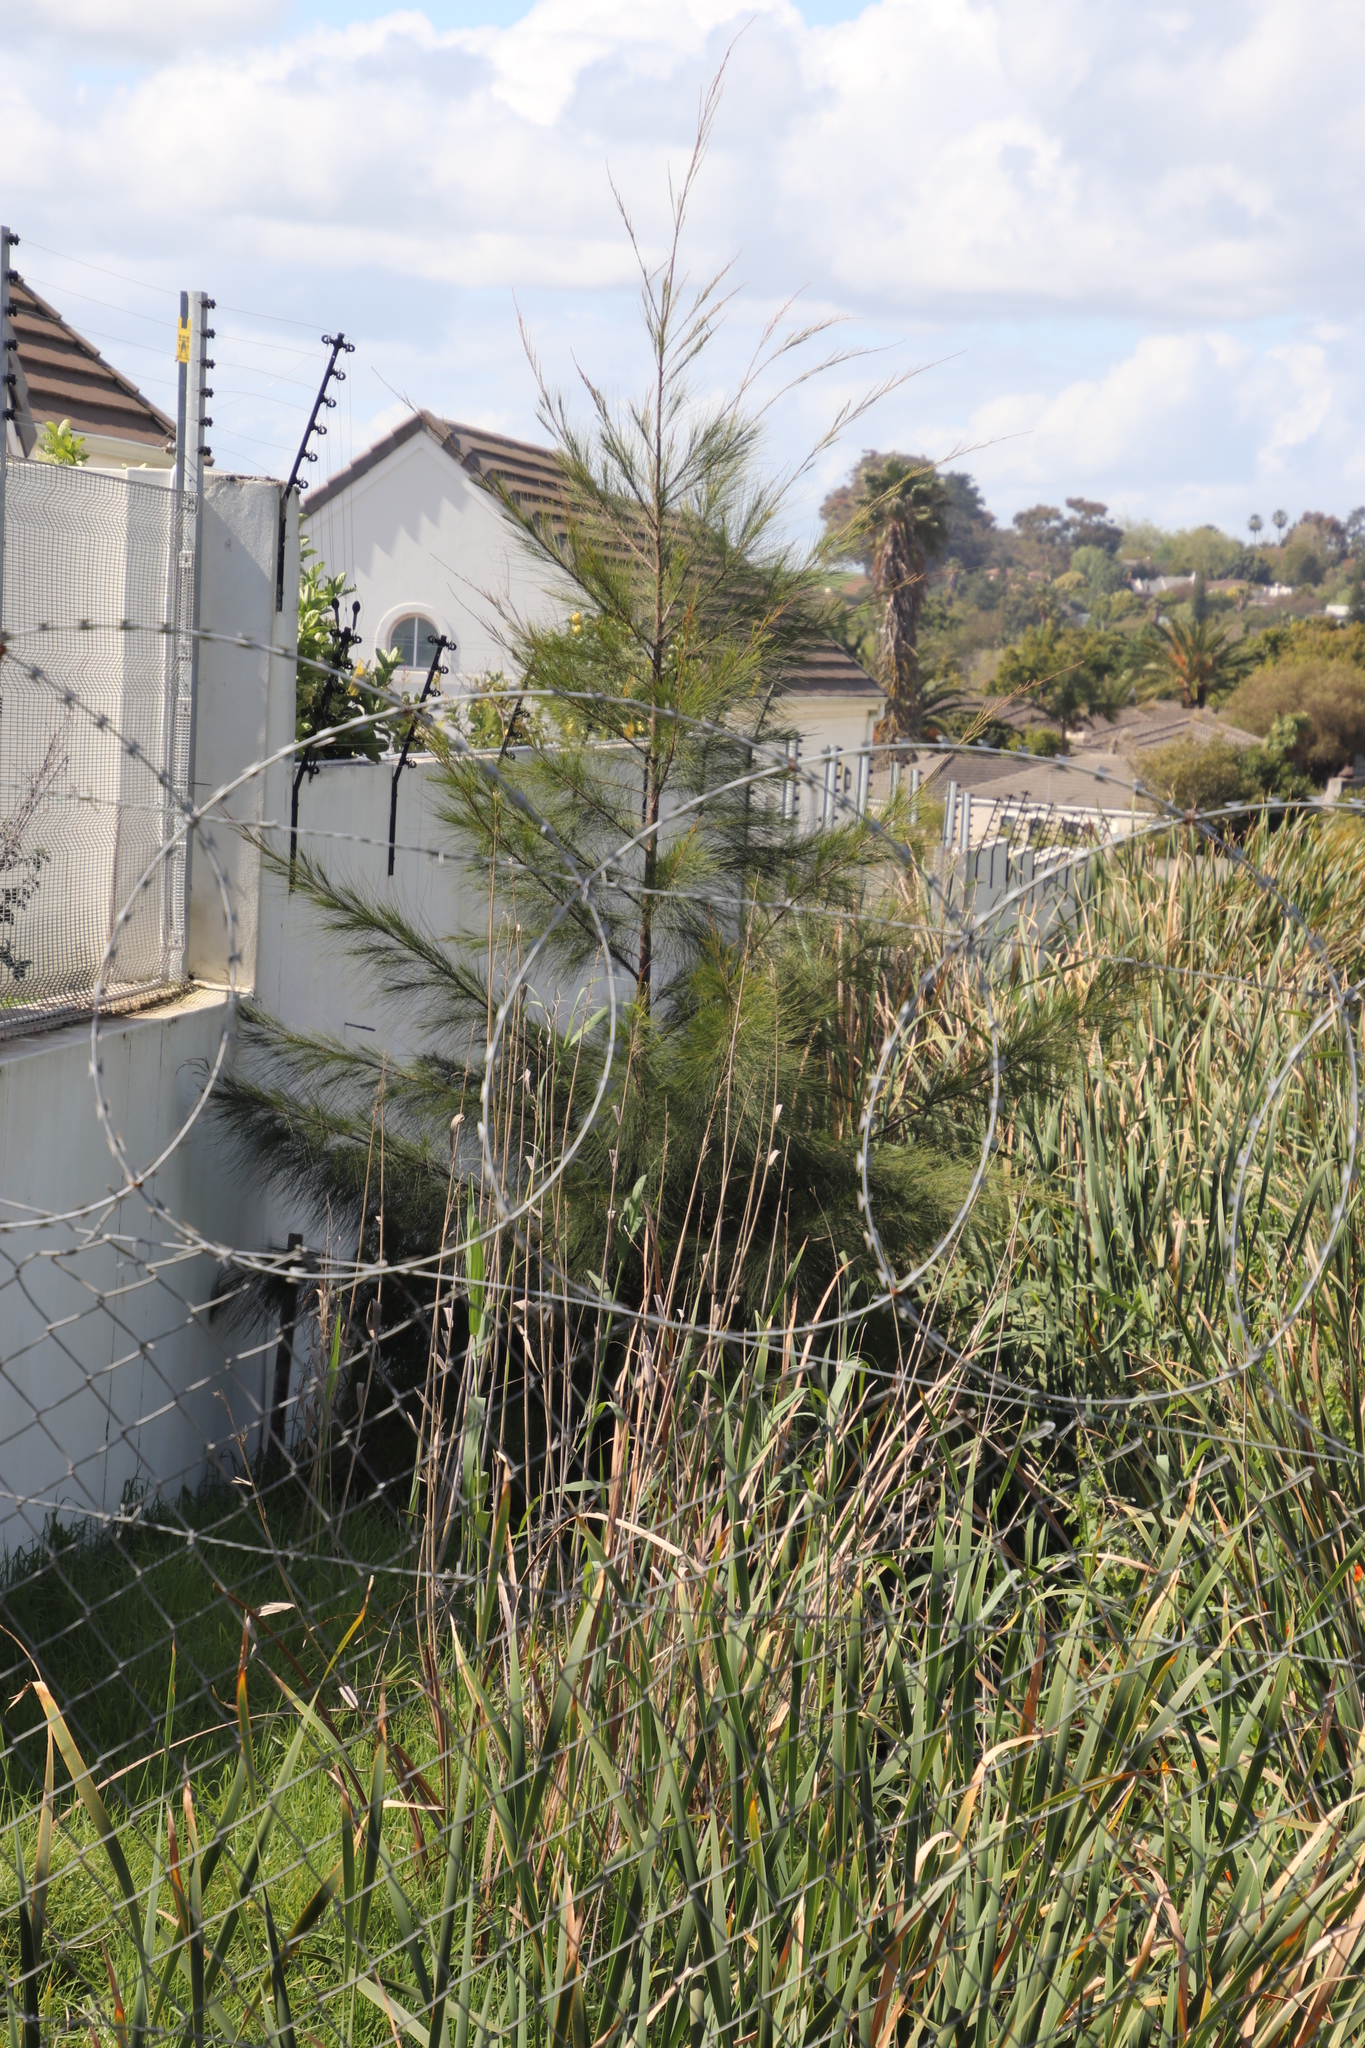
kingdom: Plantae
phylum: Tracheophyta
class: Magnoliopsida
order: Fagales
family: Casuarinaceae
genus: Casuarina
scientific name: Casuarina cunninghamiana
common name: River sheoak
